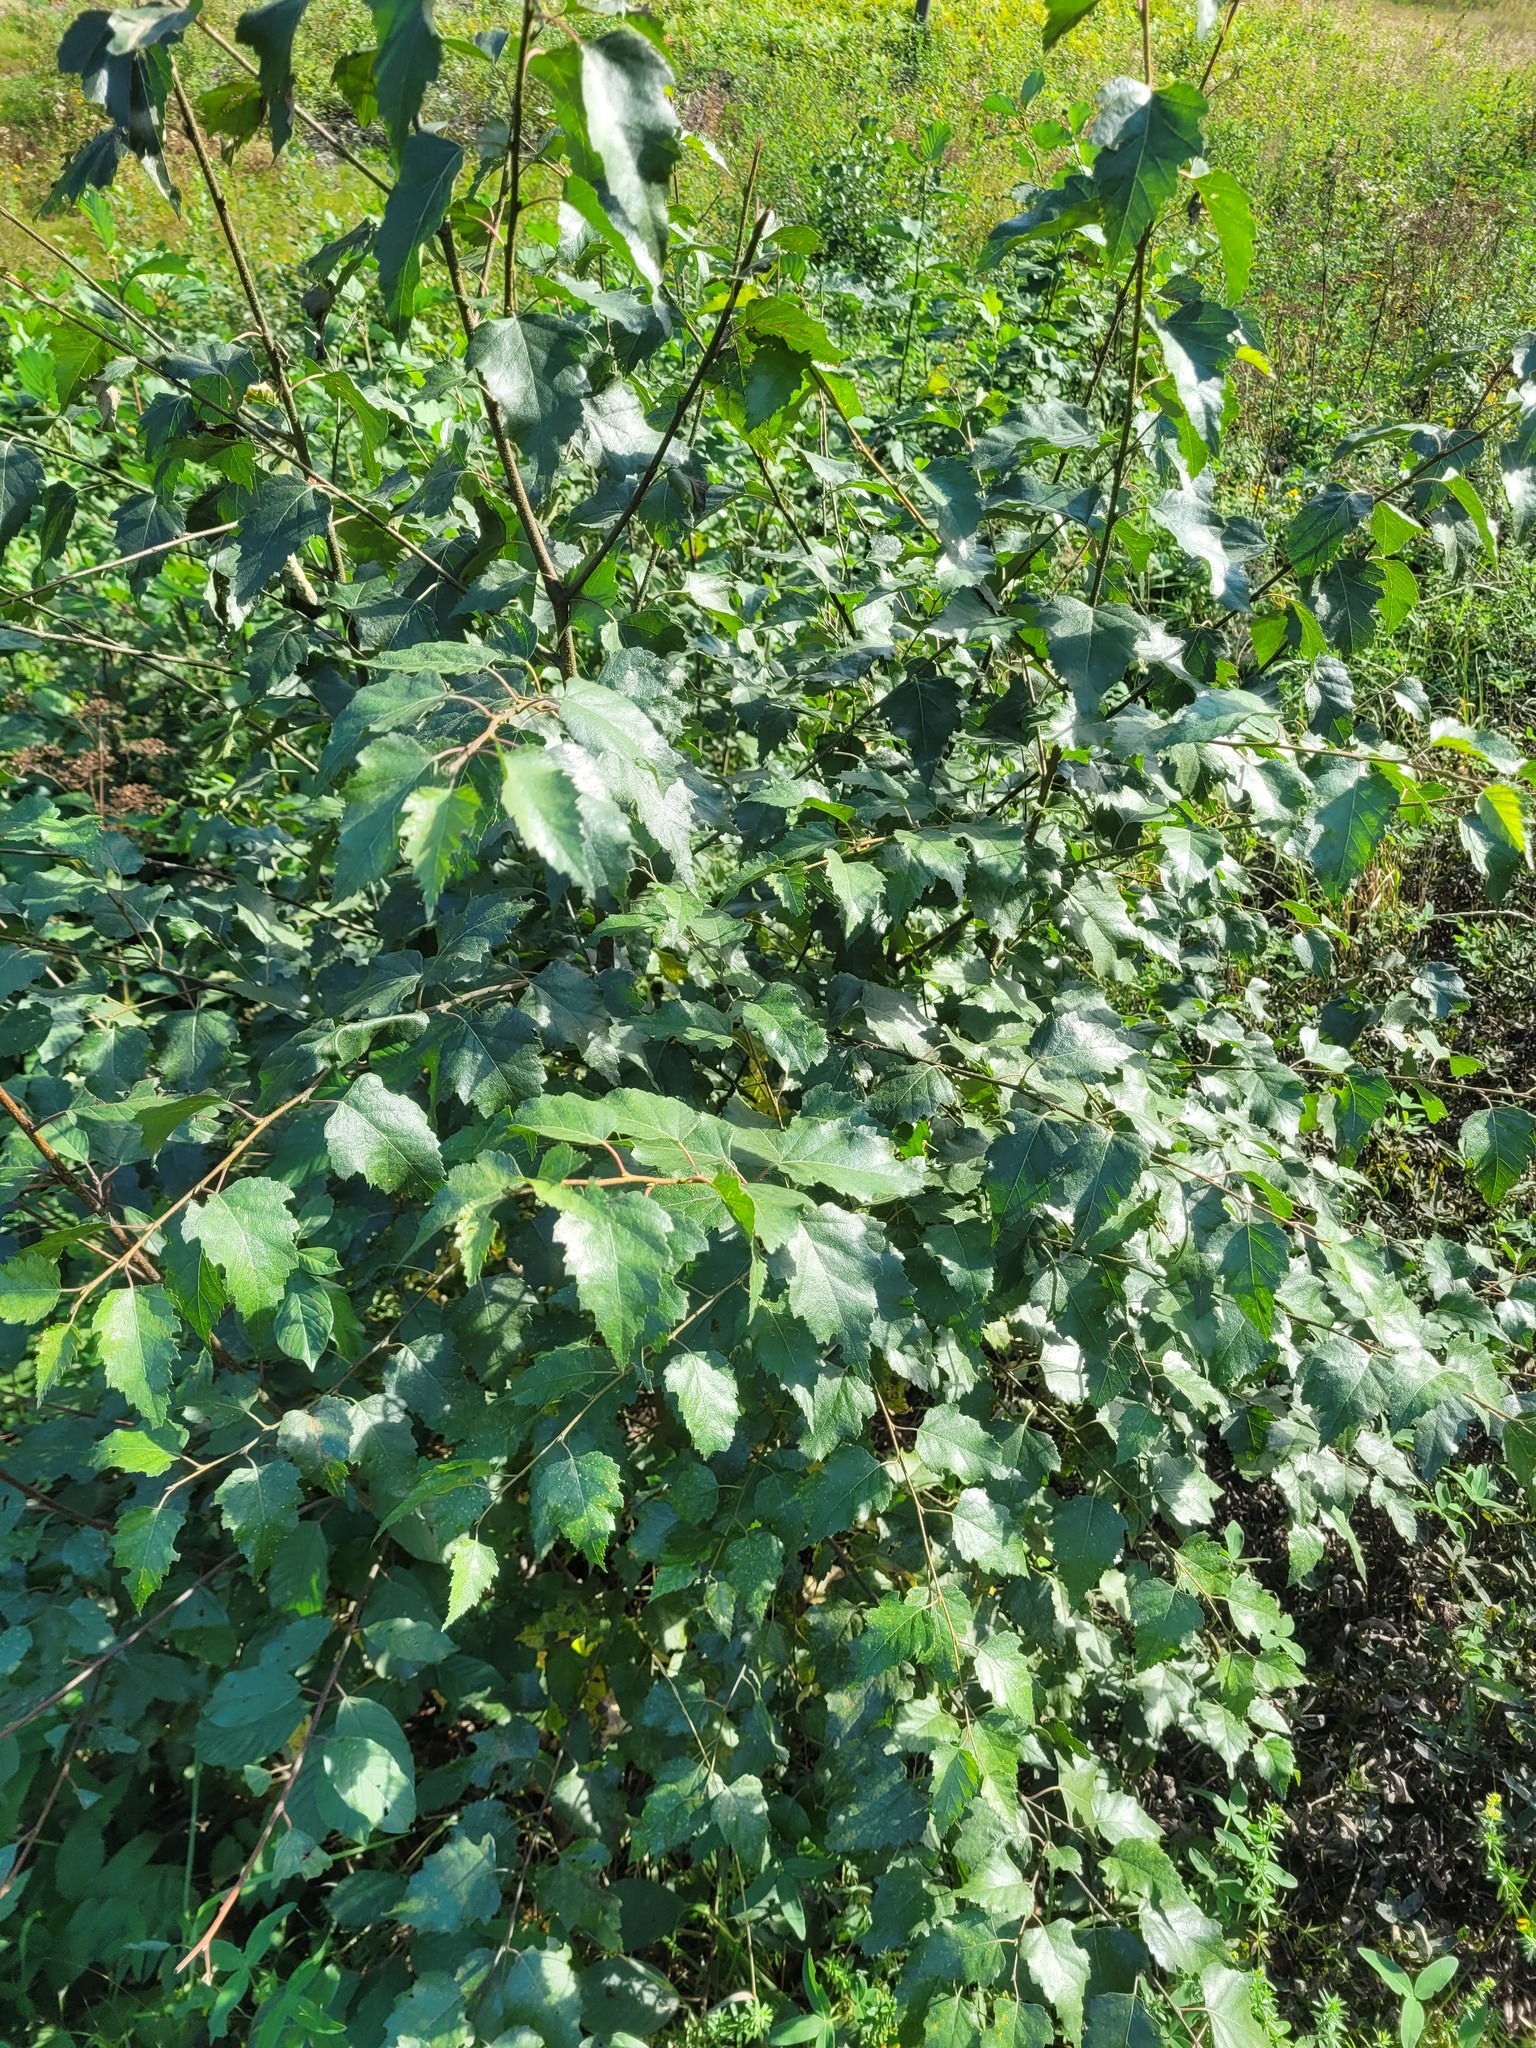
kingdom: Plantae
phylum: Tracheophyta
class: Magnoliopsida
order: Fagales
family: Betulaceae
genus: Betula
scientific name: Betula pendula
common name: Silver birch
